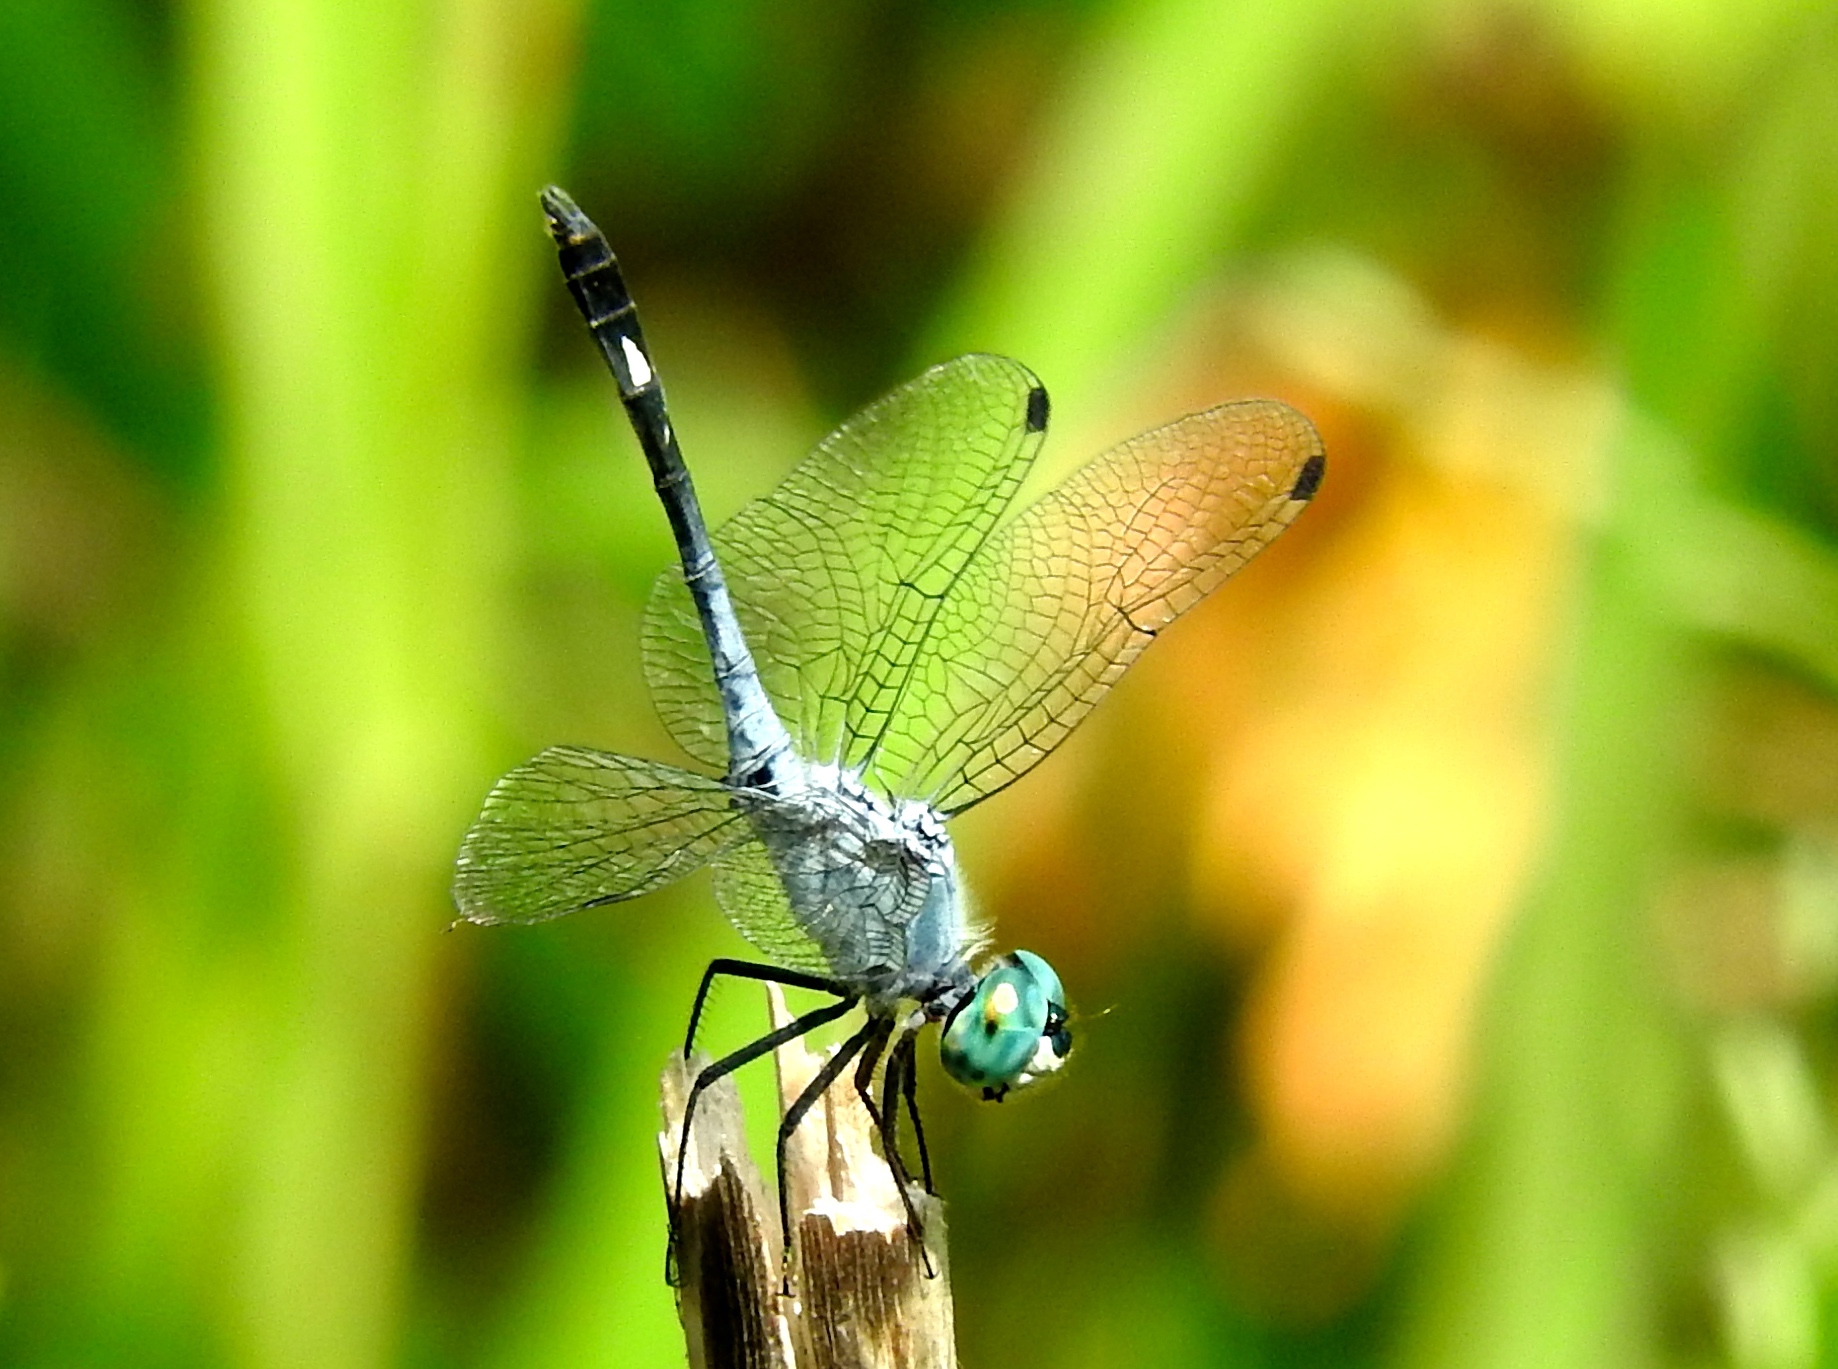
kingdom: Animalia
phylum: Arthropoda
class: Insecta
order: Odonata
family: Libellulidae
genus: Micrathyria
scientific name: Micrathyria aequalis
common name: Spot-tailed dasher
